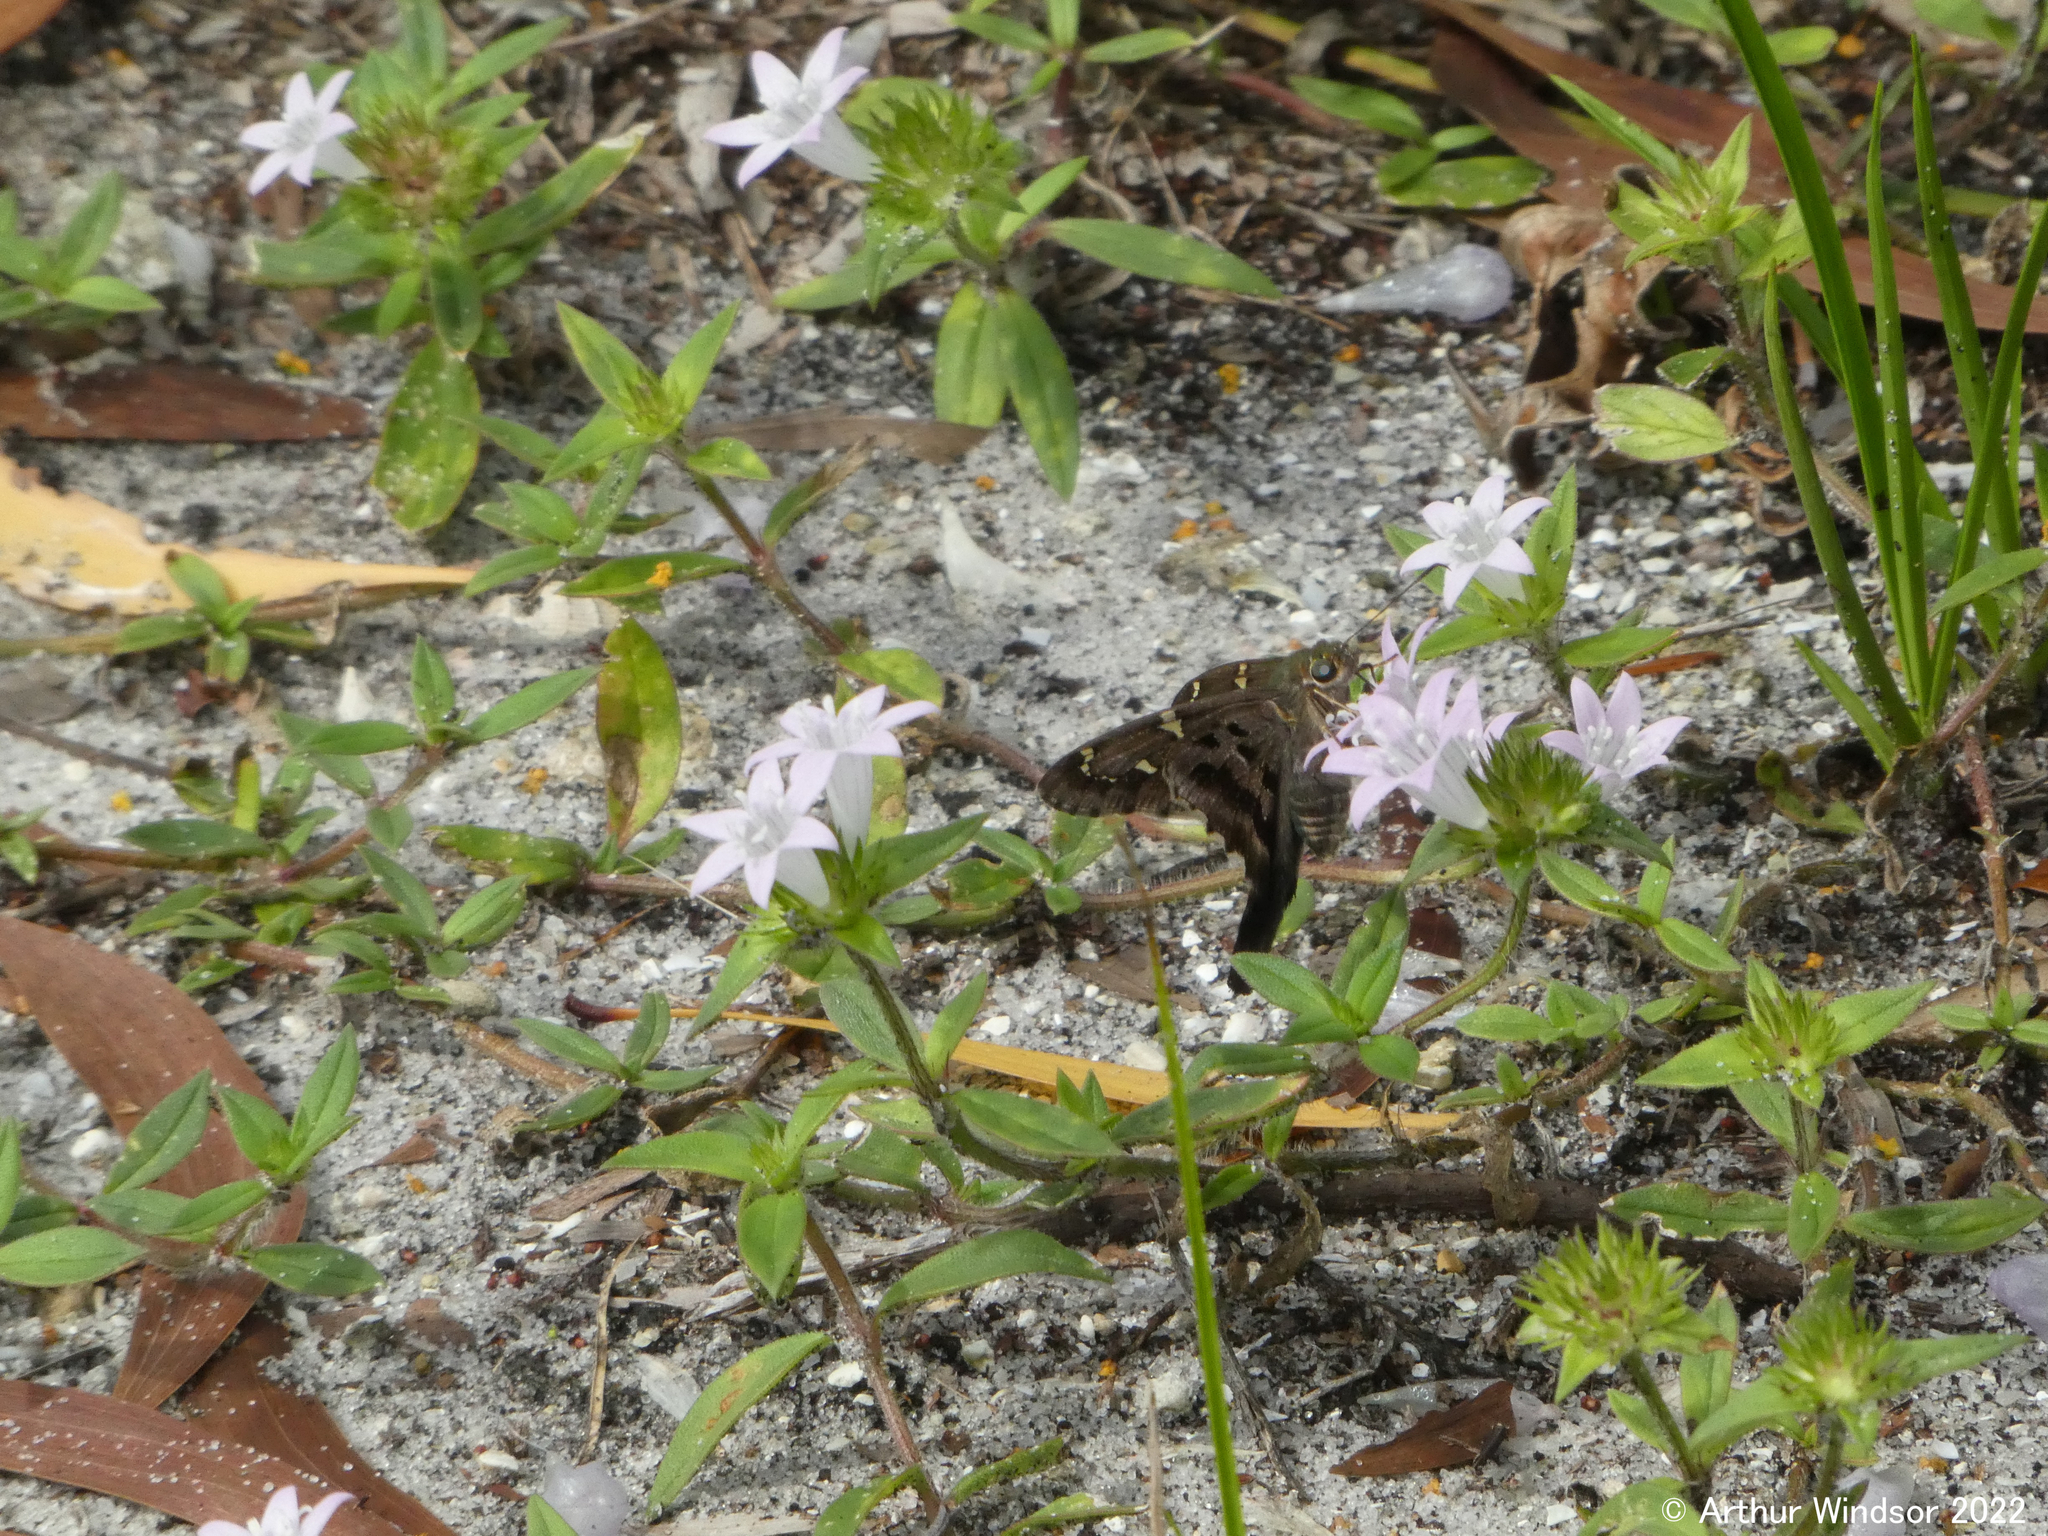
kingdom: Animalia
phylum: Arthropoda
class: Insecta
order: Lepidoptera
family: Hesperiidae
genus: Urbanus
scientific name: Urbanus proteus
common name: Long-tailed skipper
